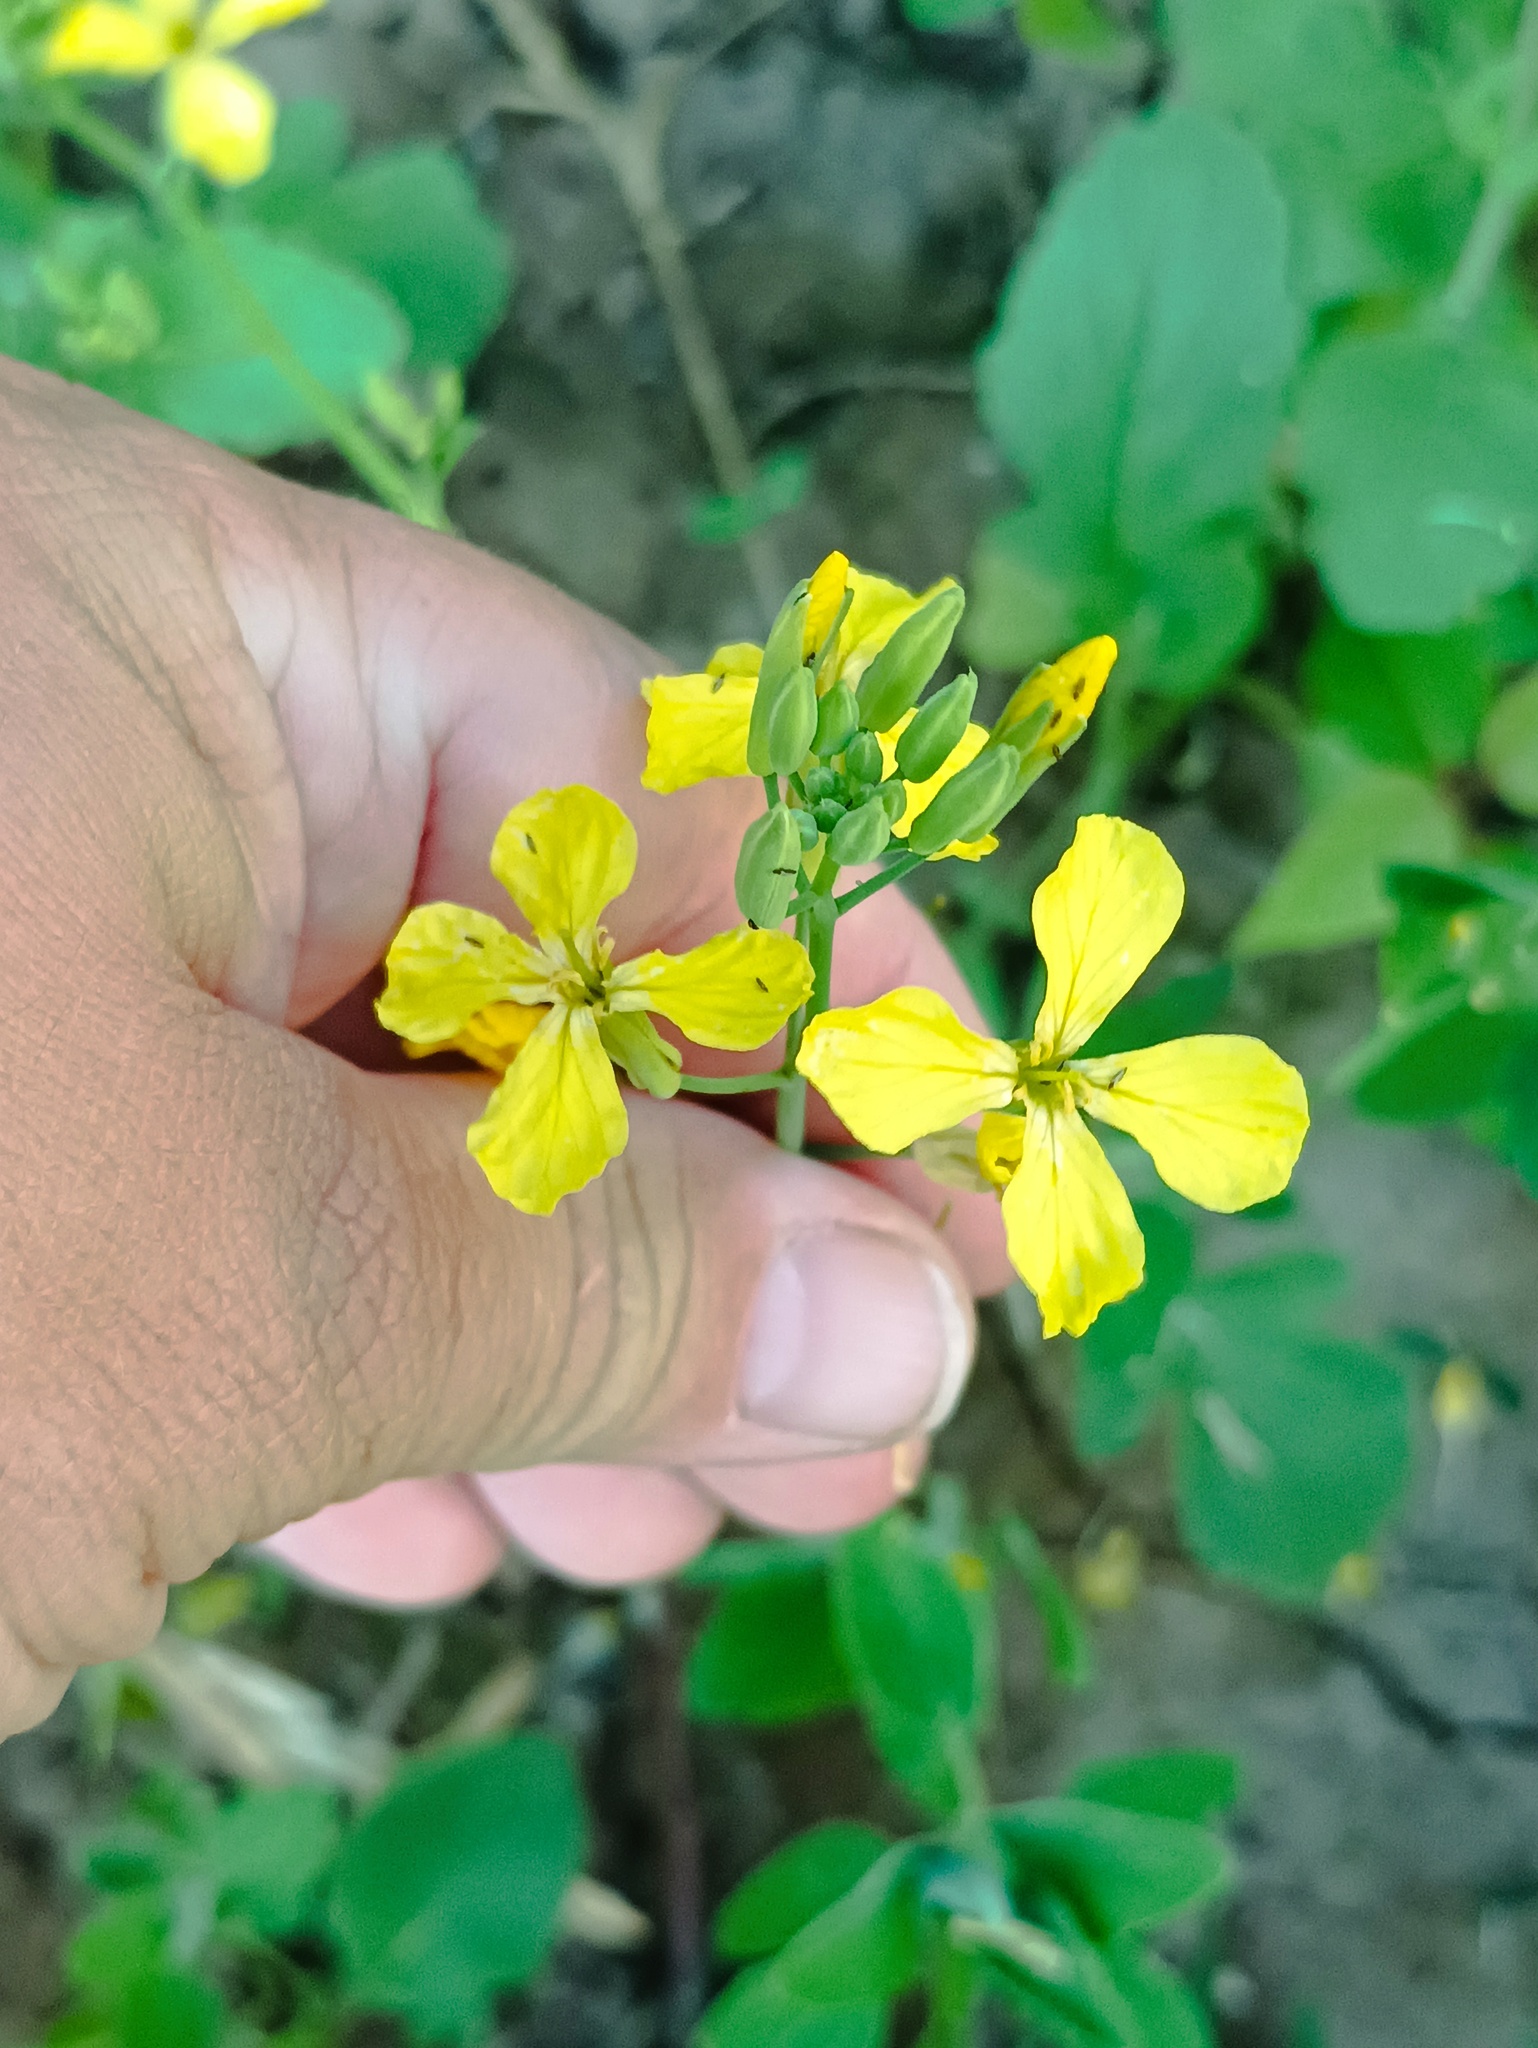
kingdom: Plantae
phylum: Tracheophyta
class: Magnoliopsida
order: Brassicales
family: Brassicaceae
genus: Raphanus
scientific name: Raphanus raphanistrum
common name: Wild radish
